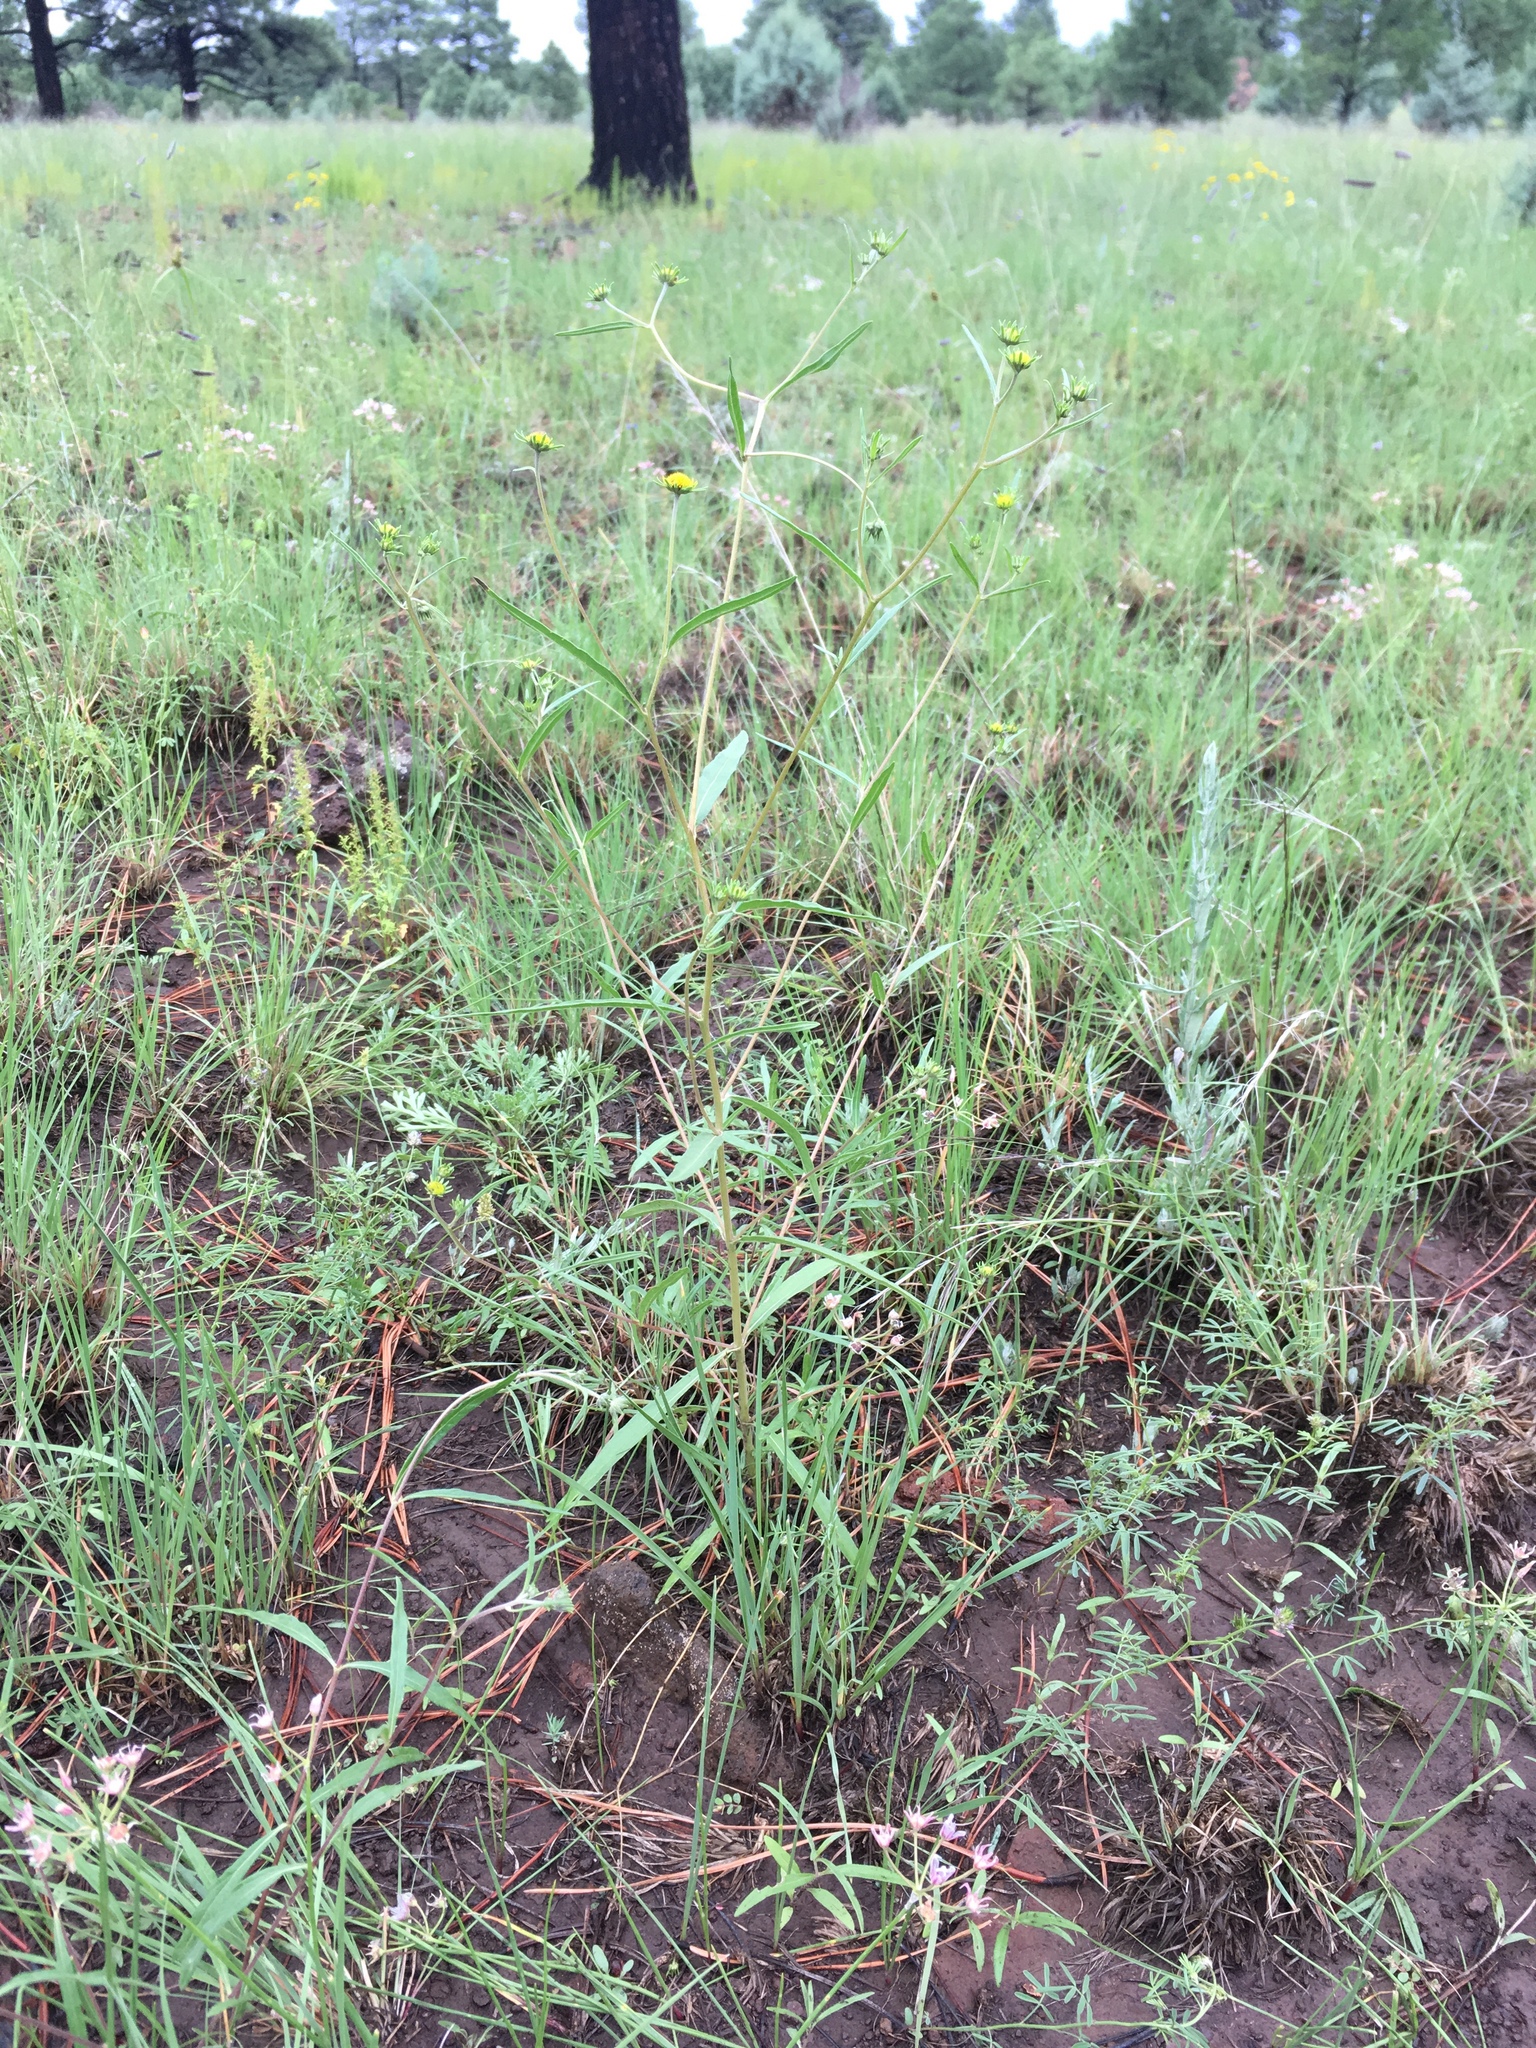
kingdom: Plantae
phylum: Tracheophyta
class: Magnoliopsida
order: Asterales
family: Asteraceae
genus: Heliomeris
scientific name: Heliomeris multiflora
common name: Showy goldeneye
